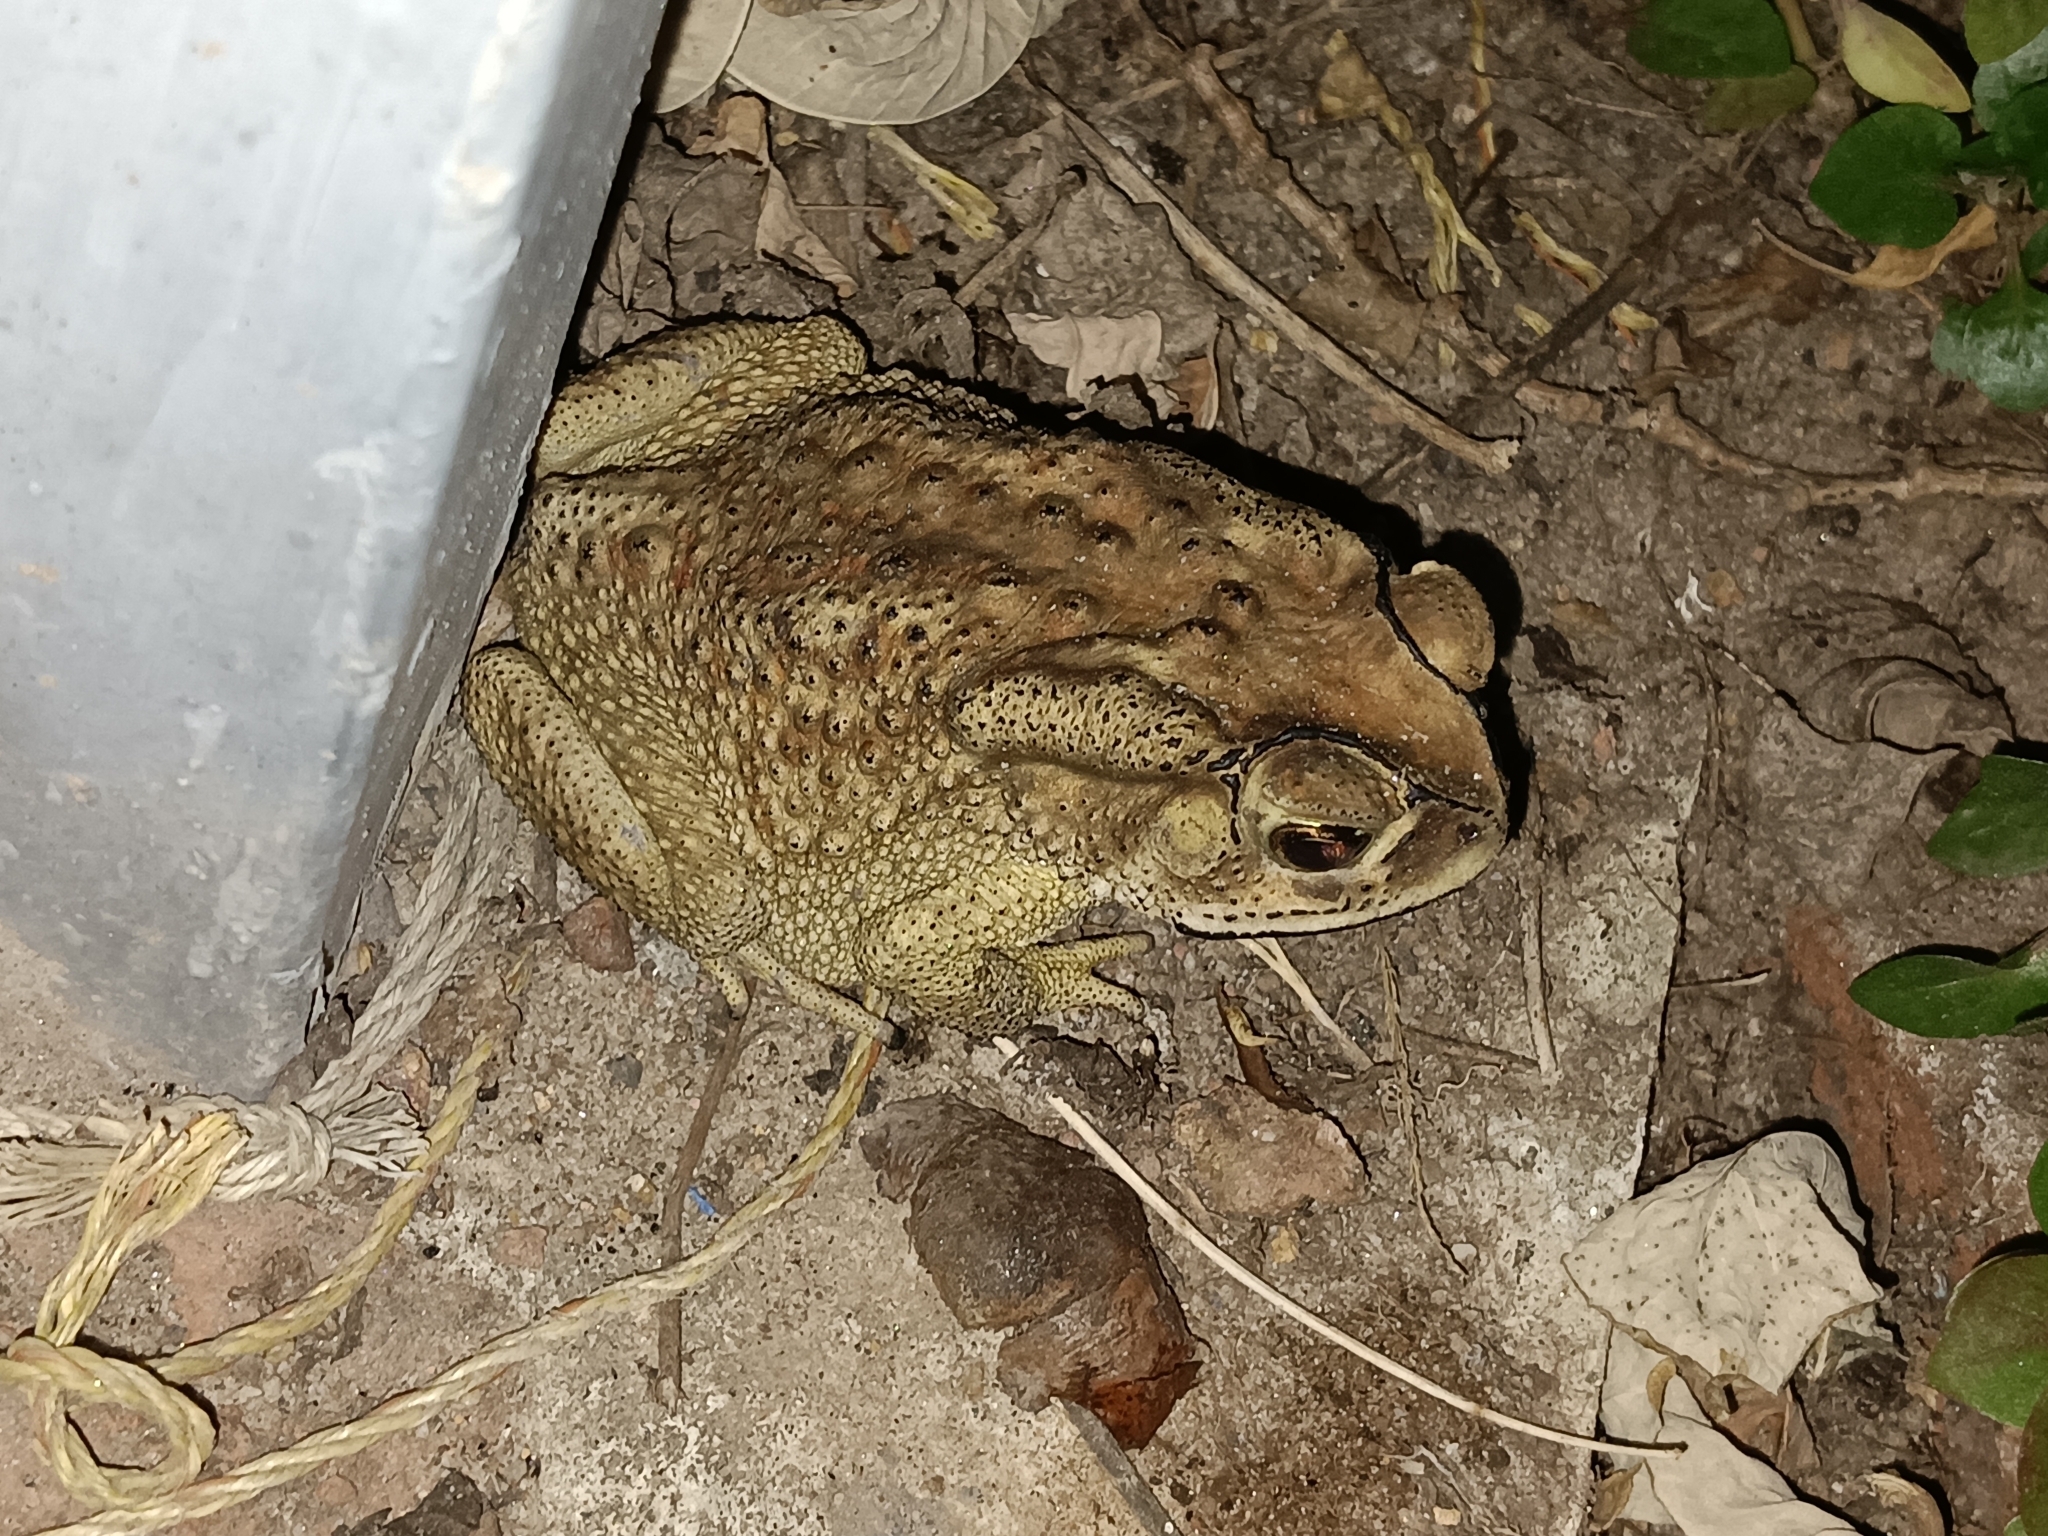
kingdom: Animalia
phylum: Chordata
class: Amphibia
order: Anura
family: Bufonidae
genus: Duttaphrynus
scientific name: Duttaphrynus melanostictus
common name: Common sunda toad
